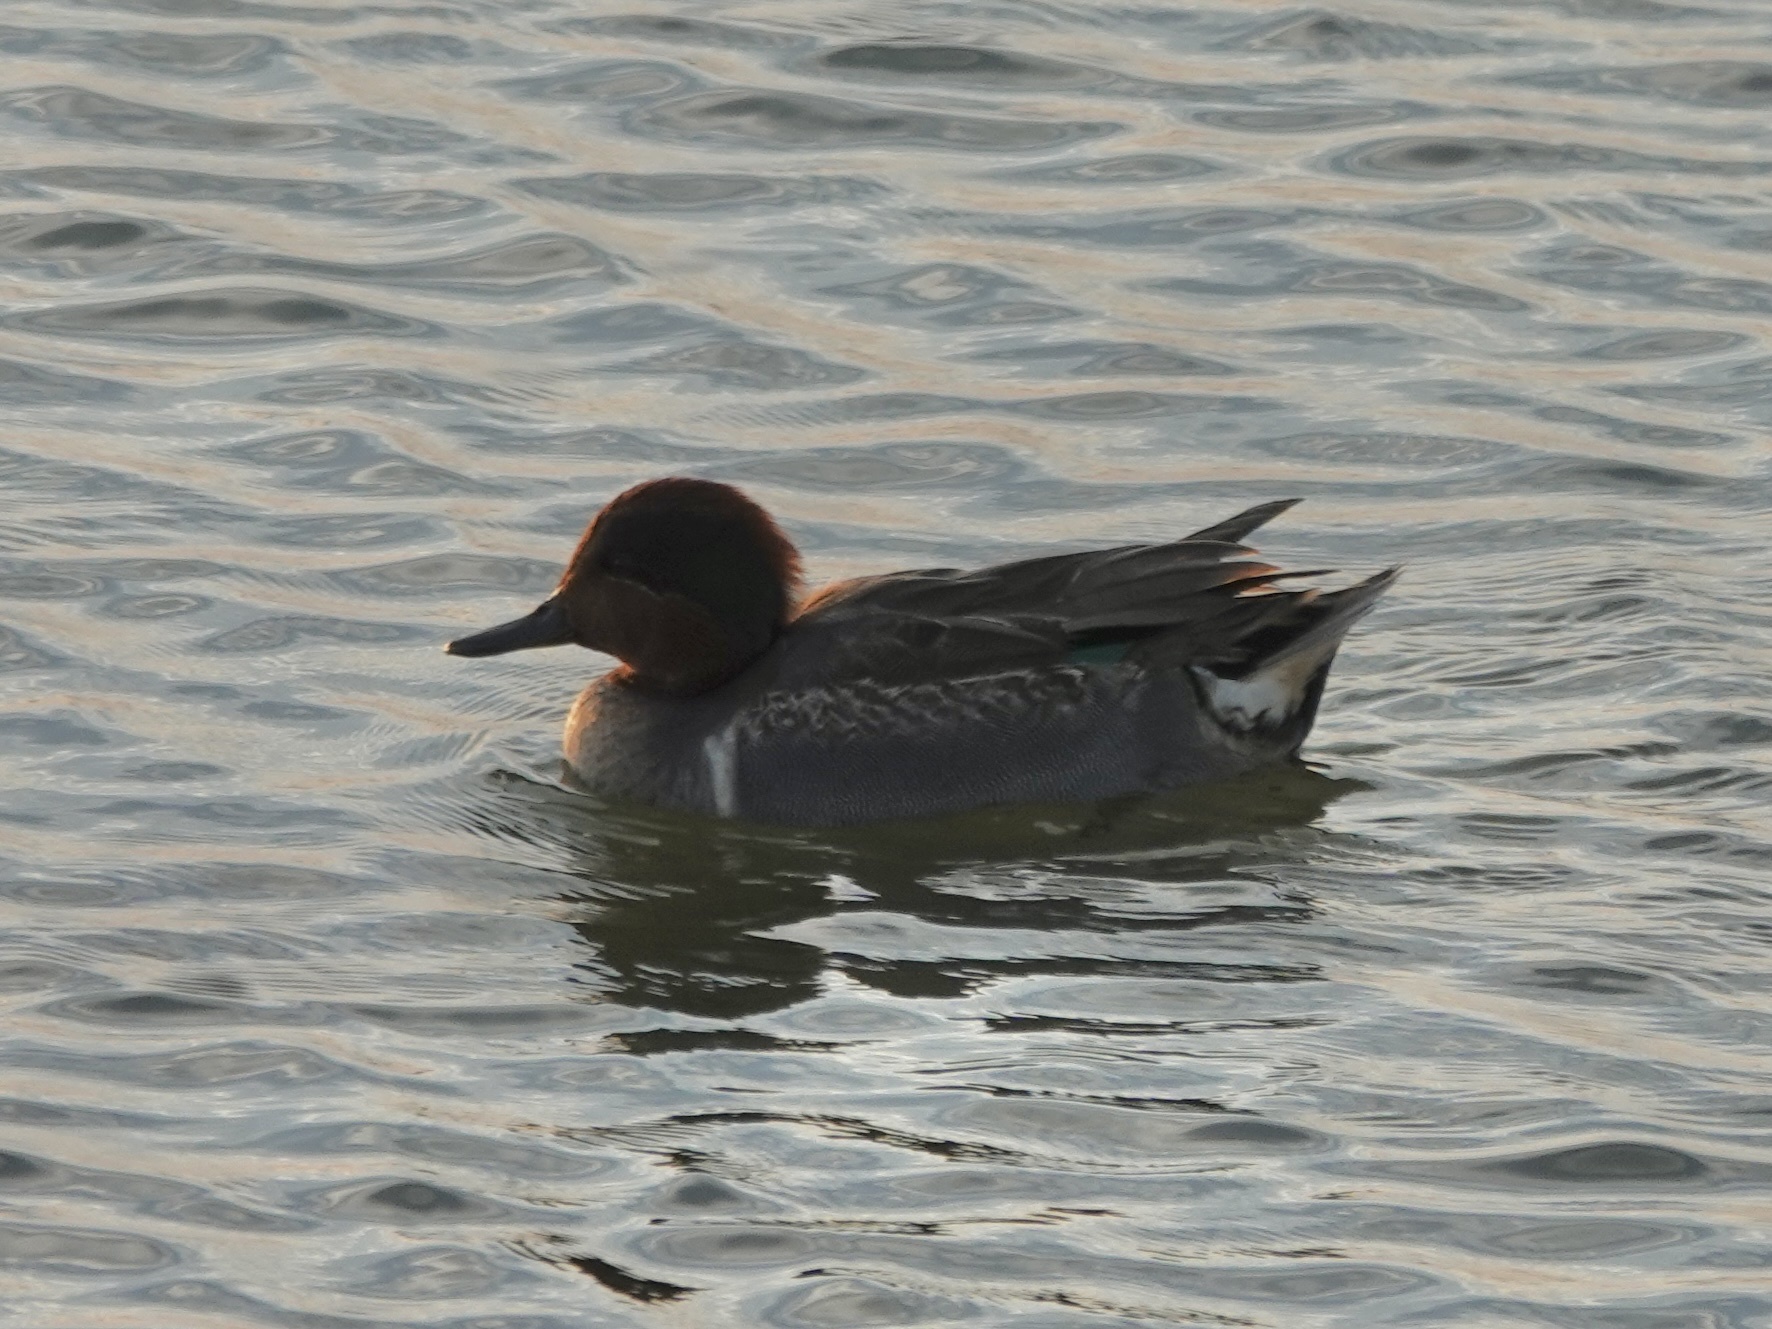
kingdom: Animalia
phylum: Chordata
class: Aves
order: Anseriformes
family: Anatidae
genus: Anas
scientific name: Anas crecca
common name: Eurasian teal
